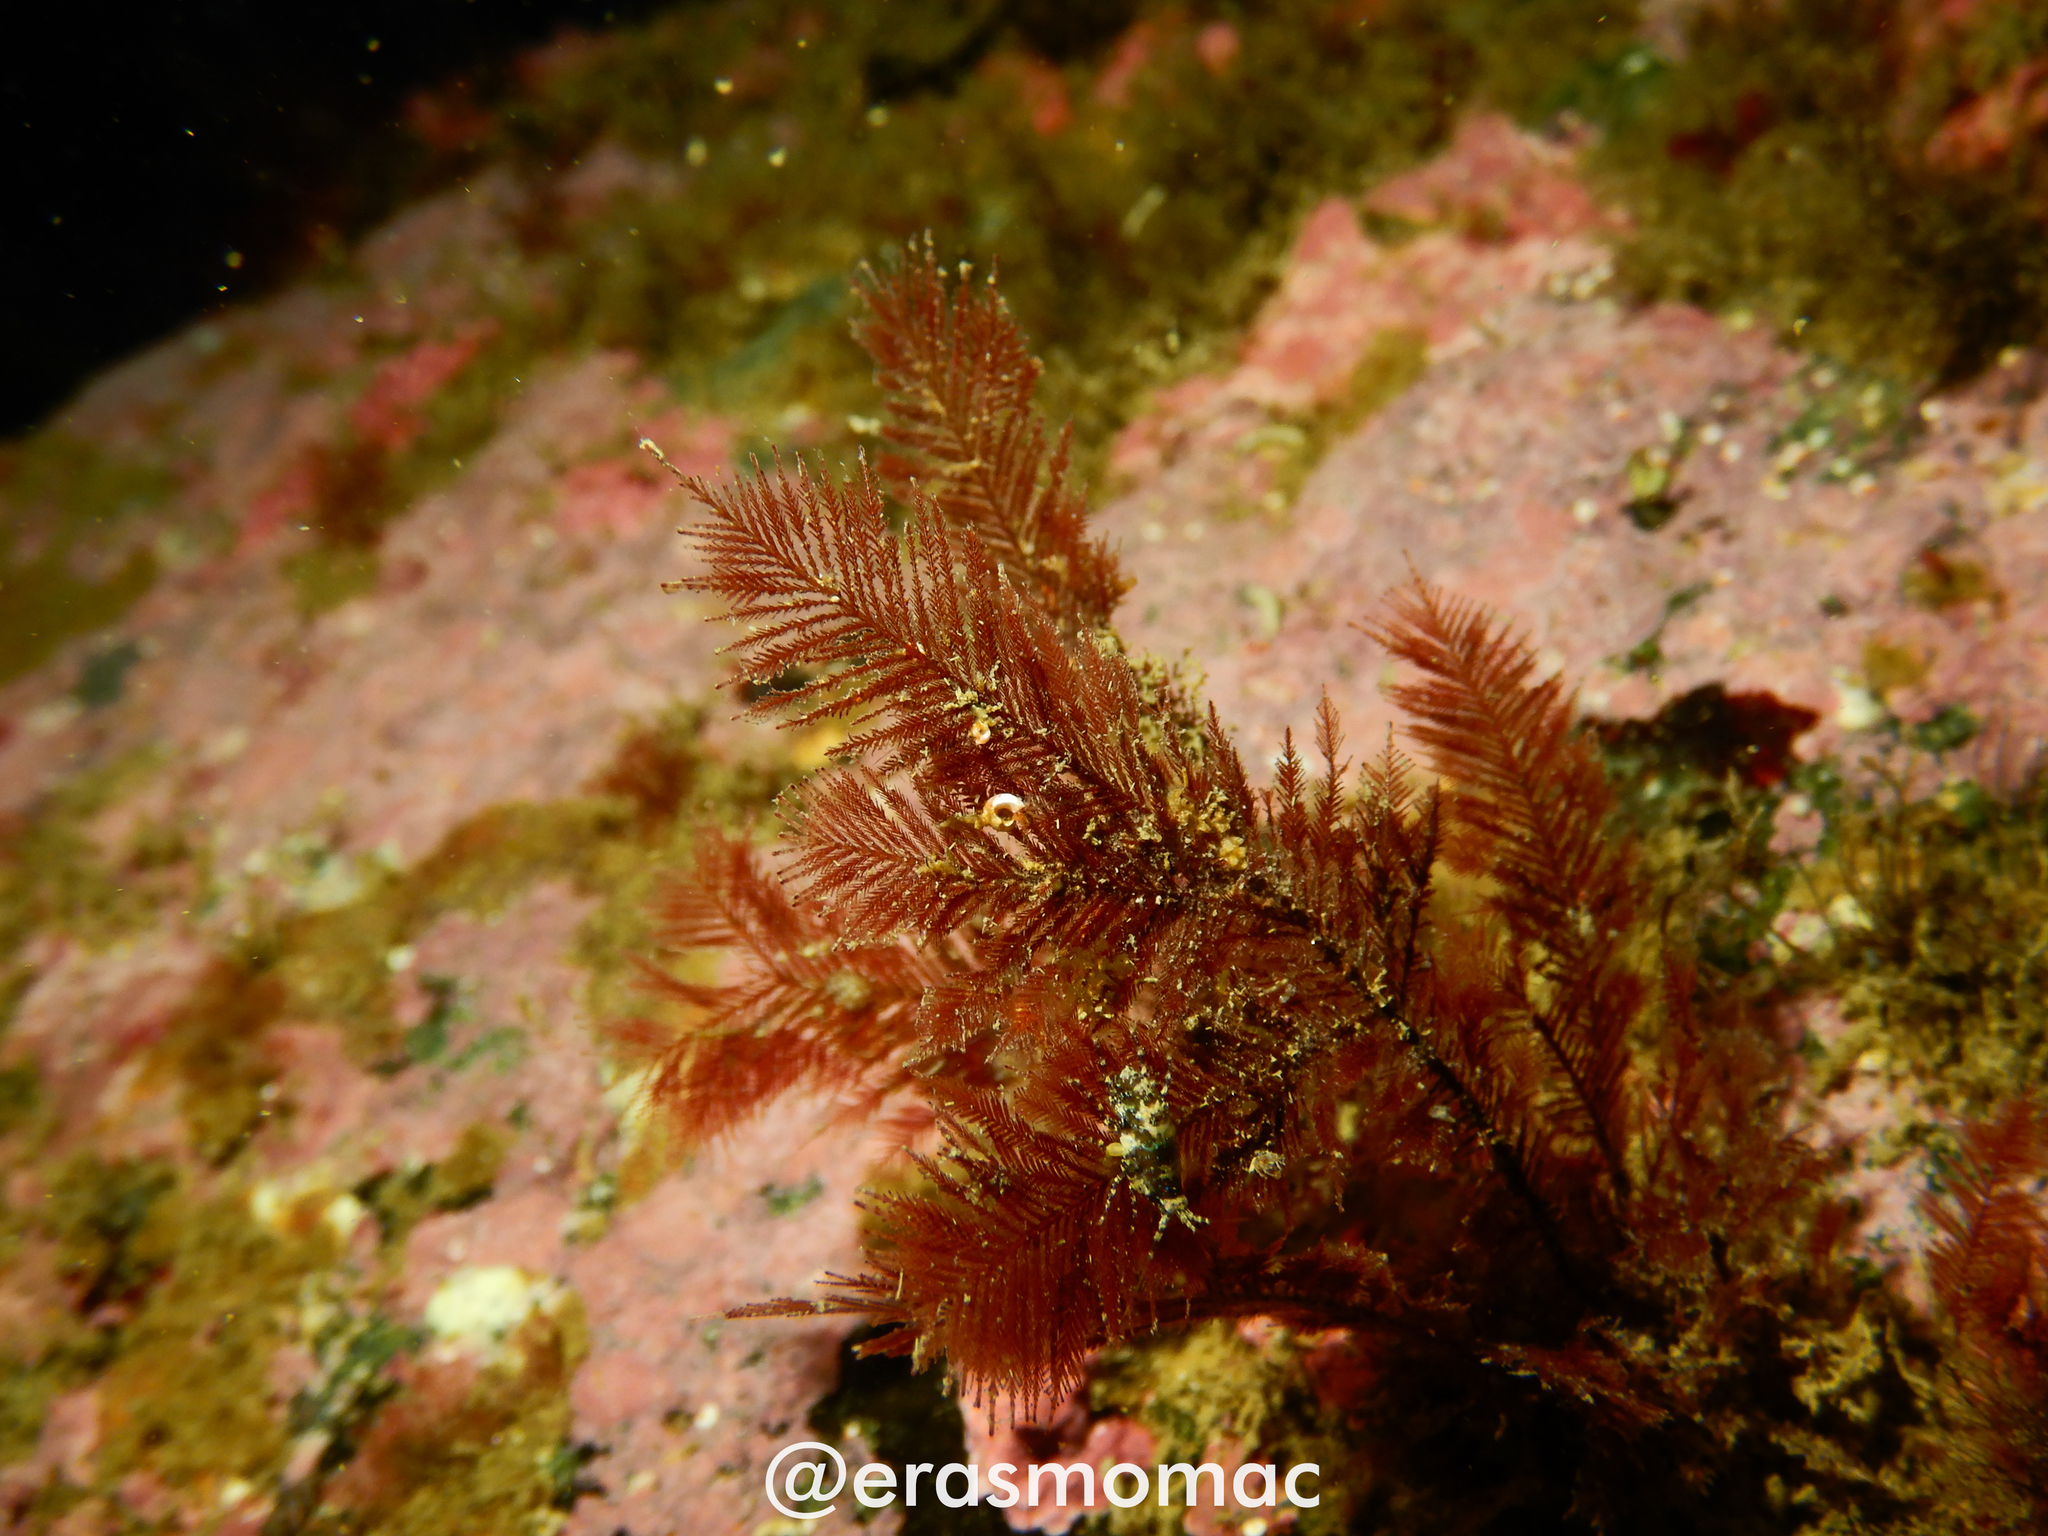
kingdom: Plantae
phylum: Rhodophyta
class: Florideophyceae
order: Balliales
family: Balliaceae
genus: Ballia
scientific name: Ballia callitricha
